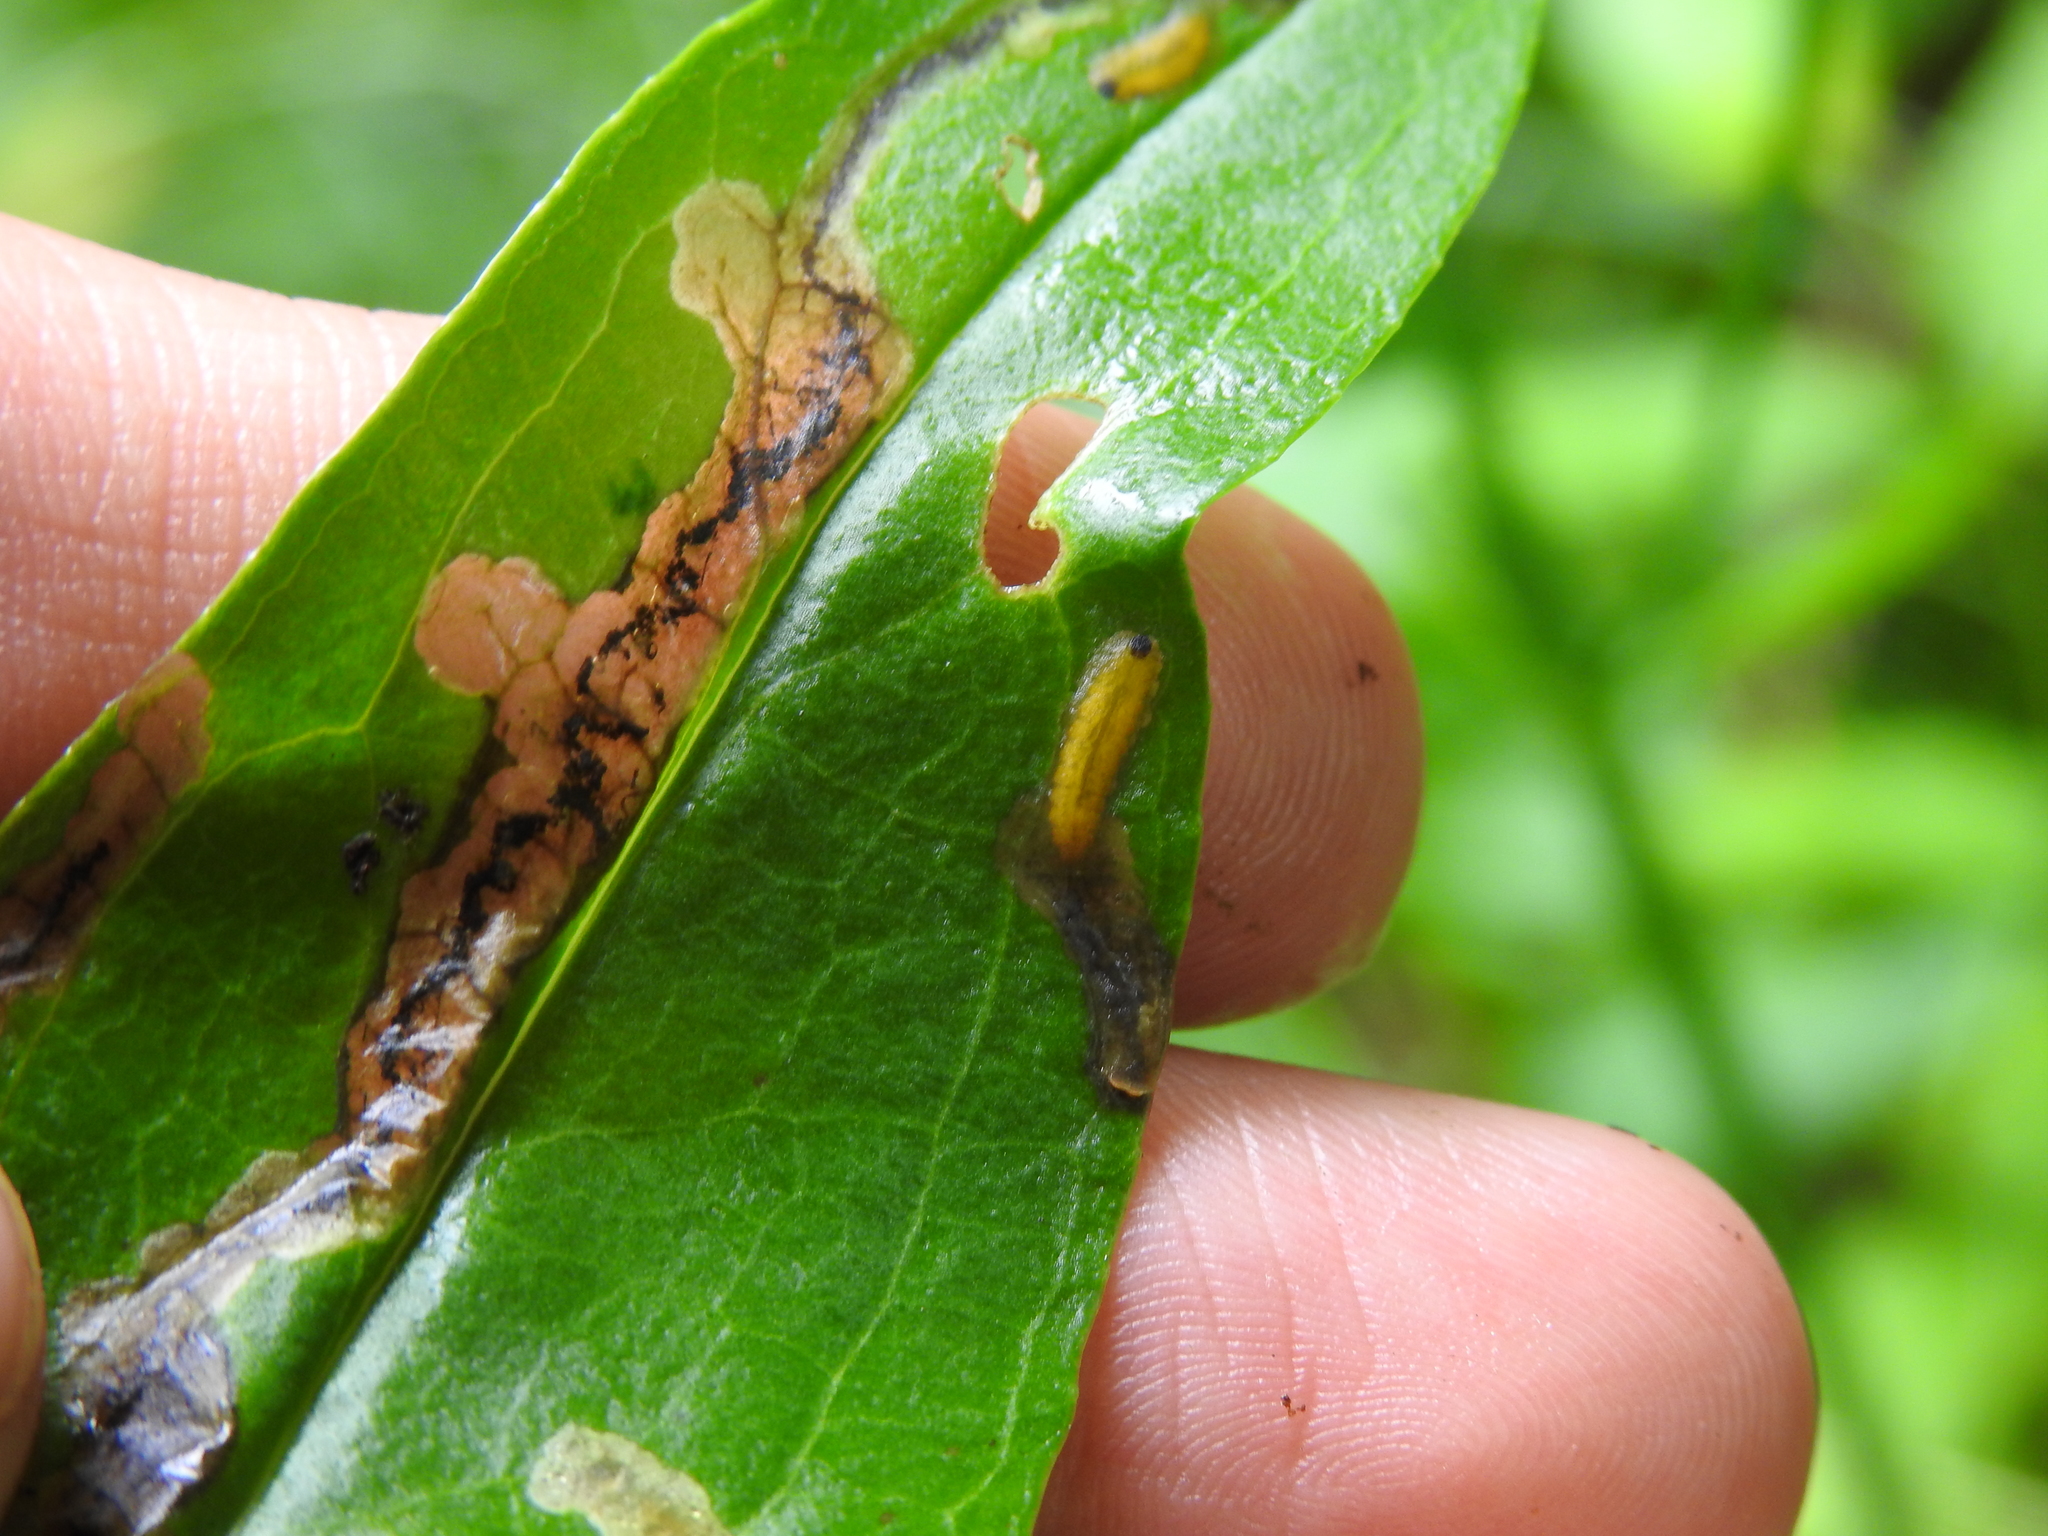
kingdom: Animalia
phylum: Arthropoda
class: Insecta
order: Coleoptera
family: Chrysomelidae
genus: Dibolia
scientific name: Dibolia borealis
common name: Northern plantain flea beetle
